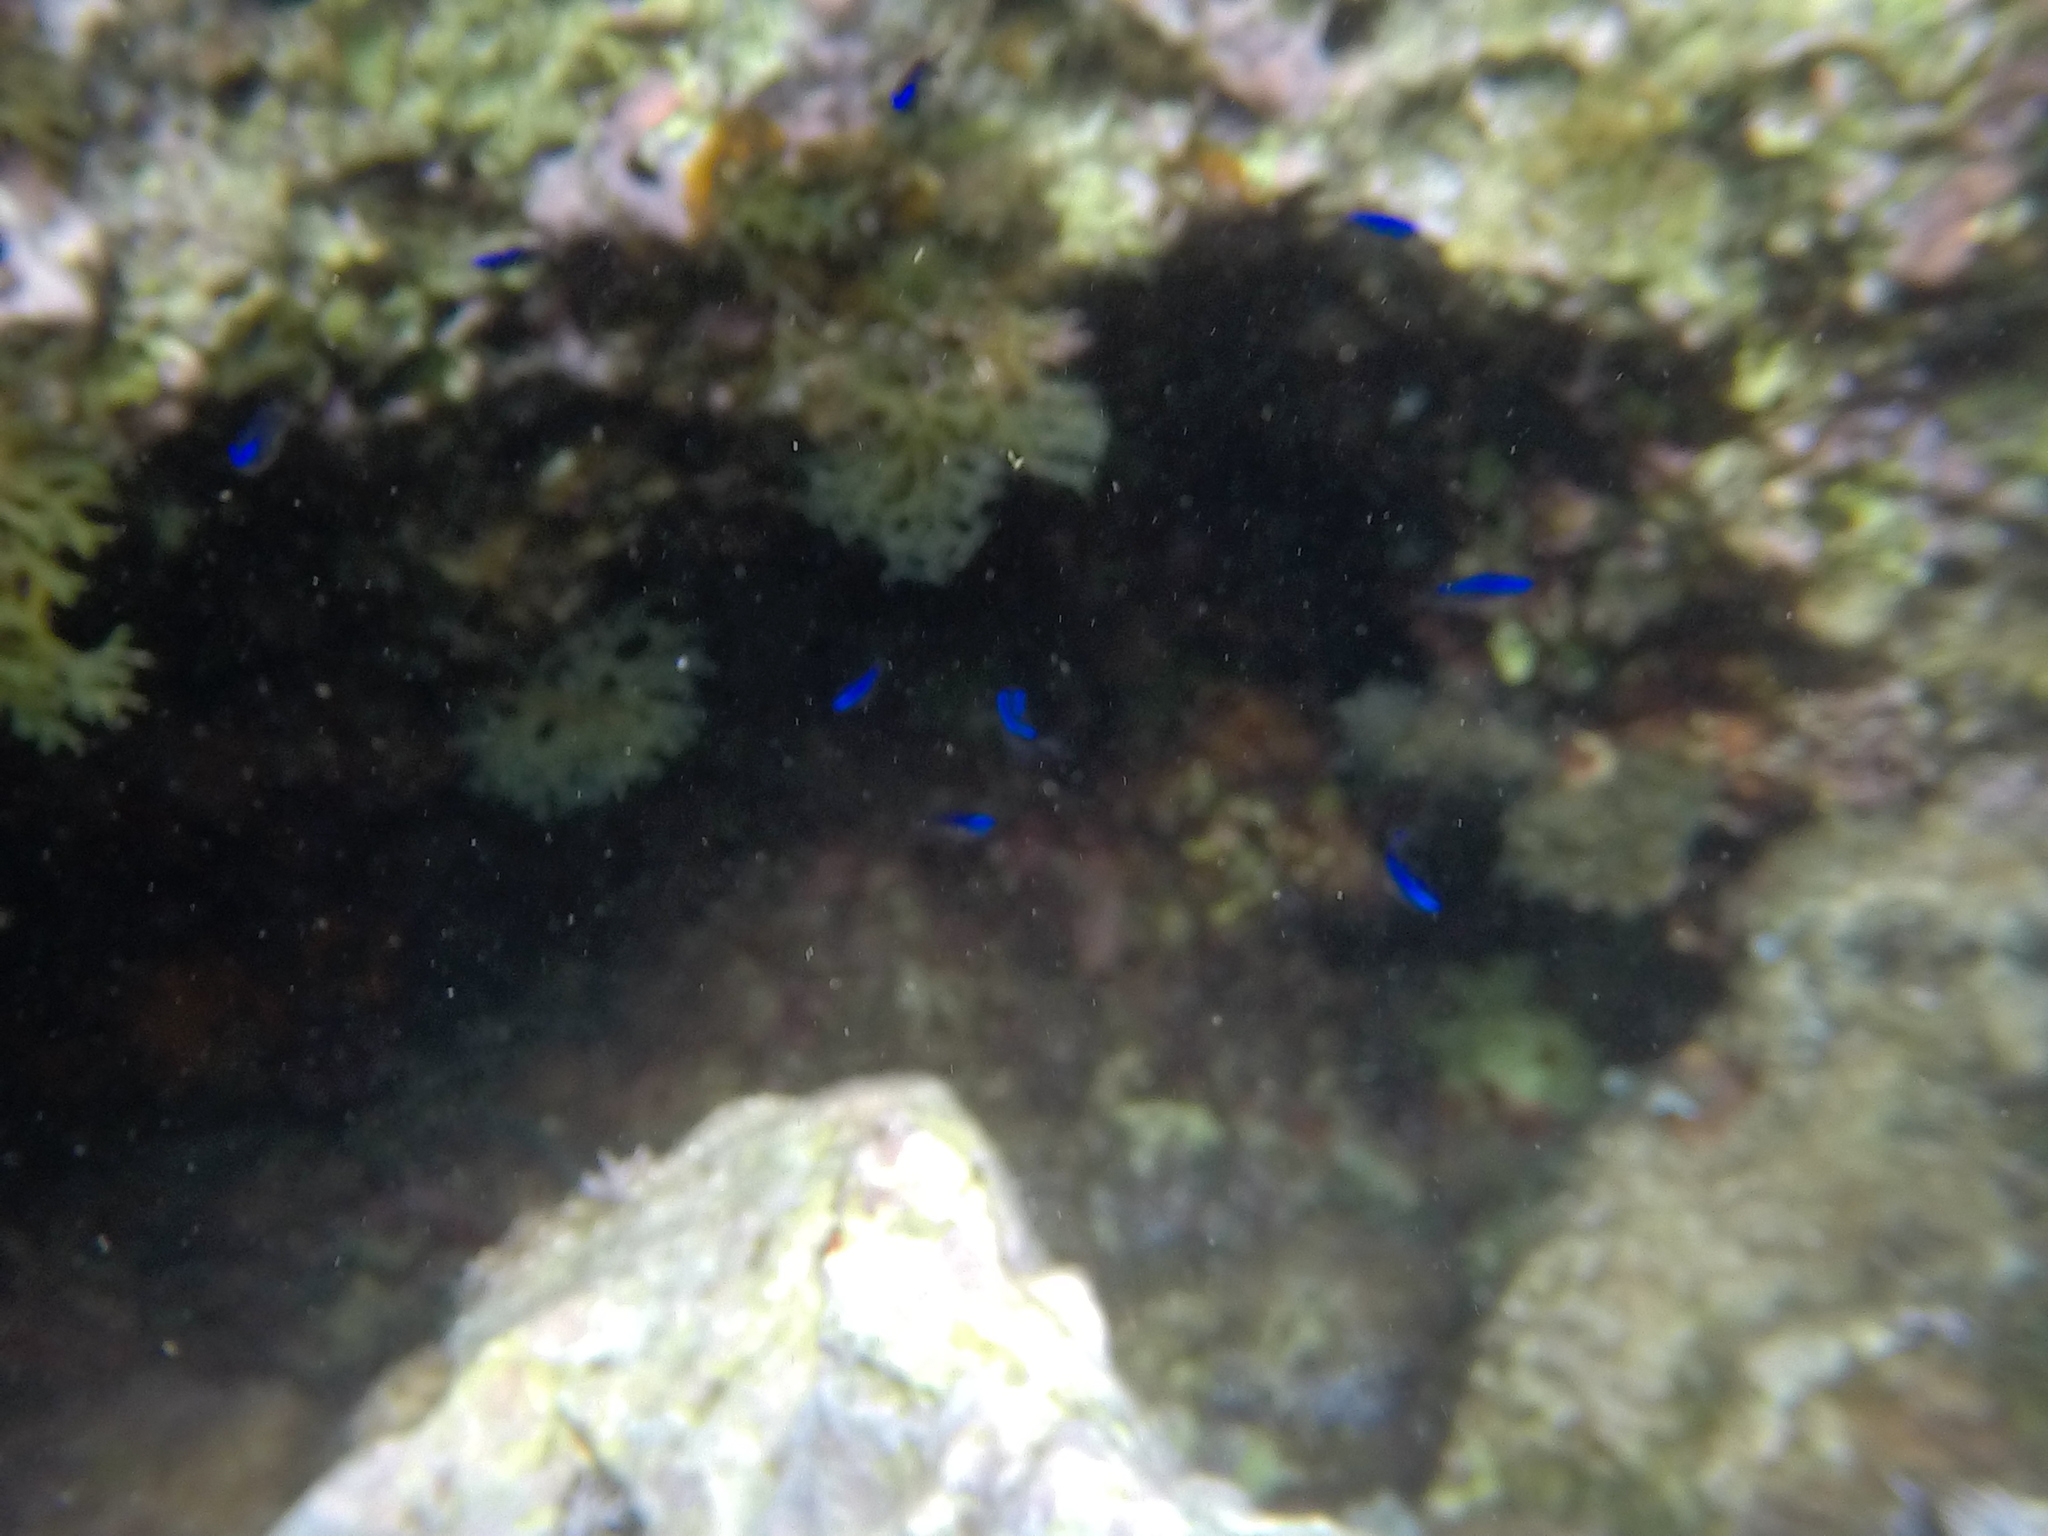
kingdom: Animalia
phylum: Chordata
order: Perciformes
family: Pomacentridae
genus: Chromis
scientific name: Chromis chromis
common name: Damselfish
